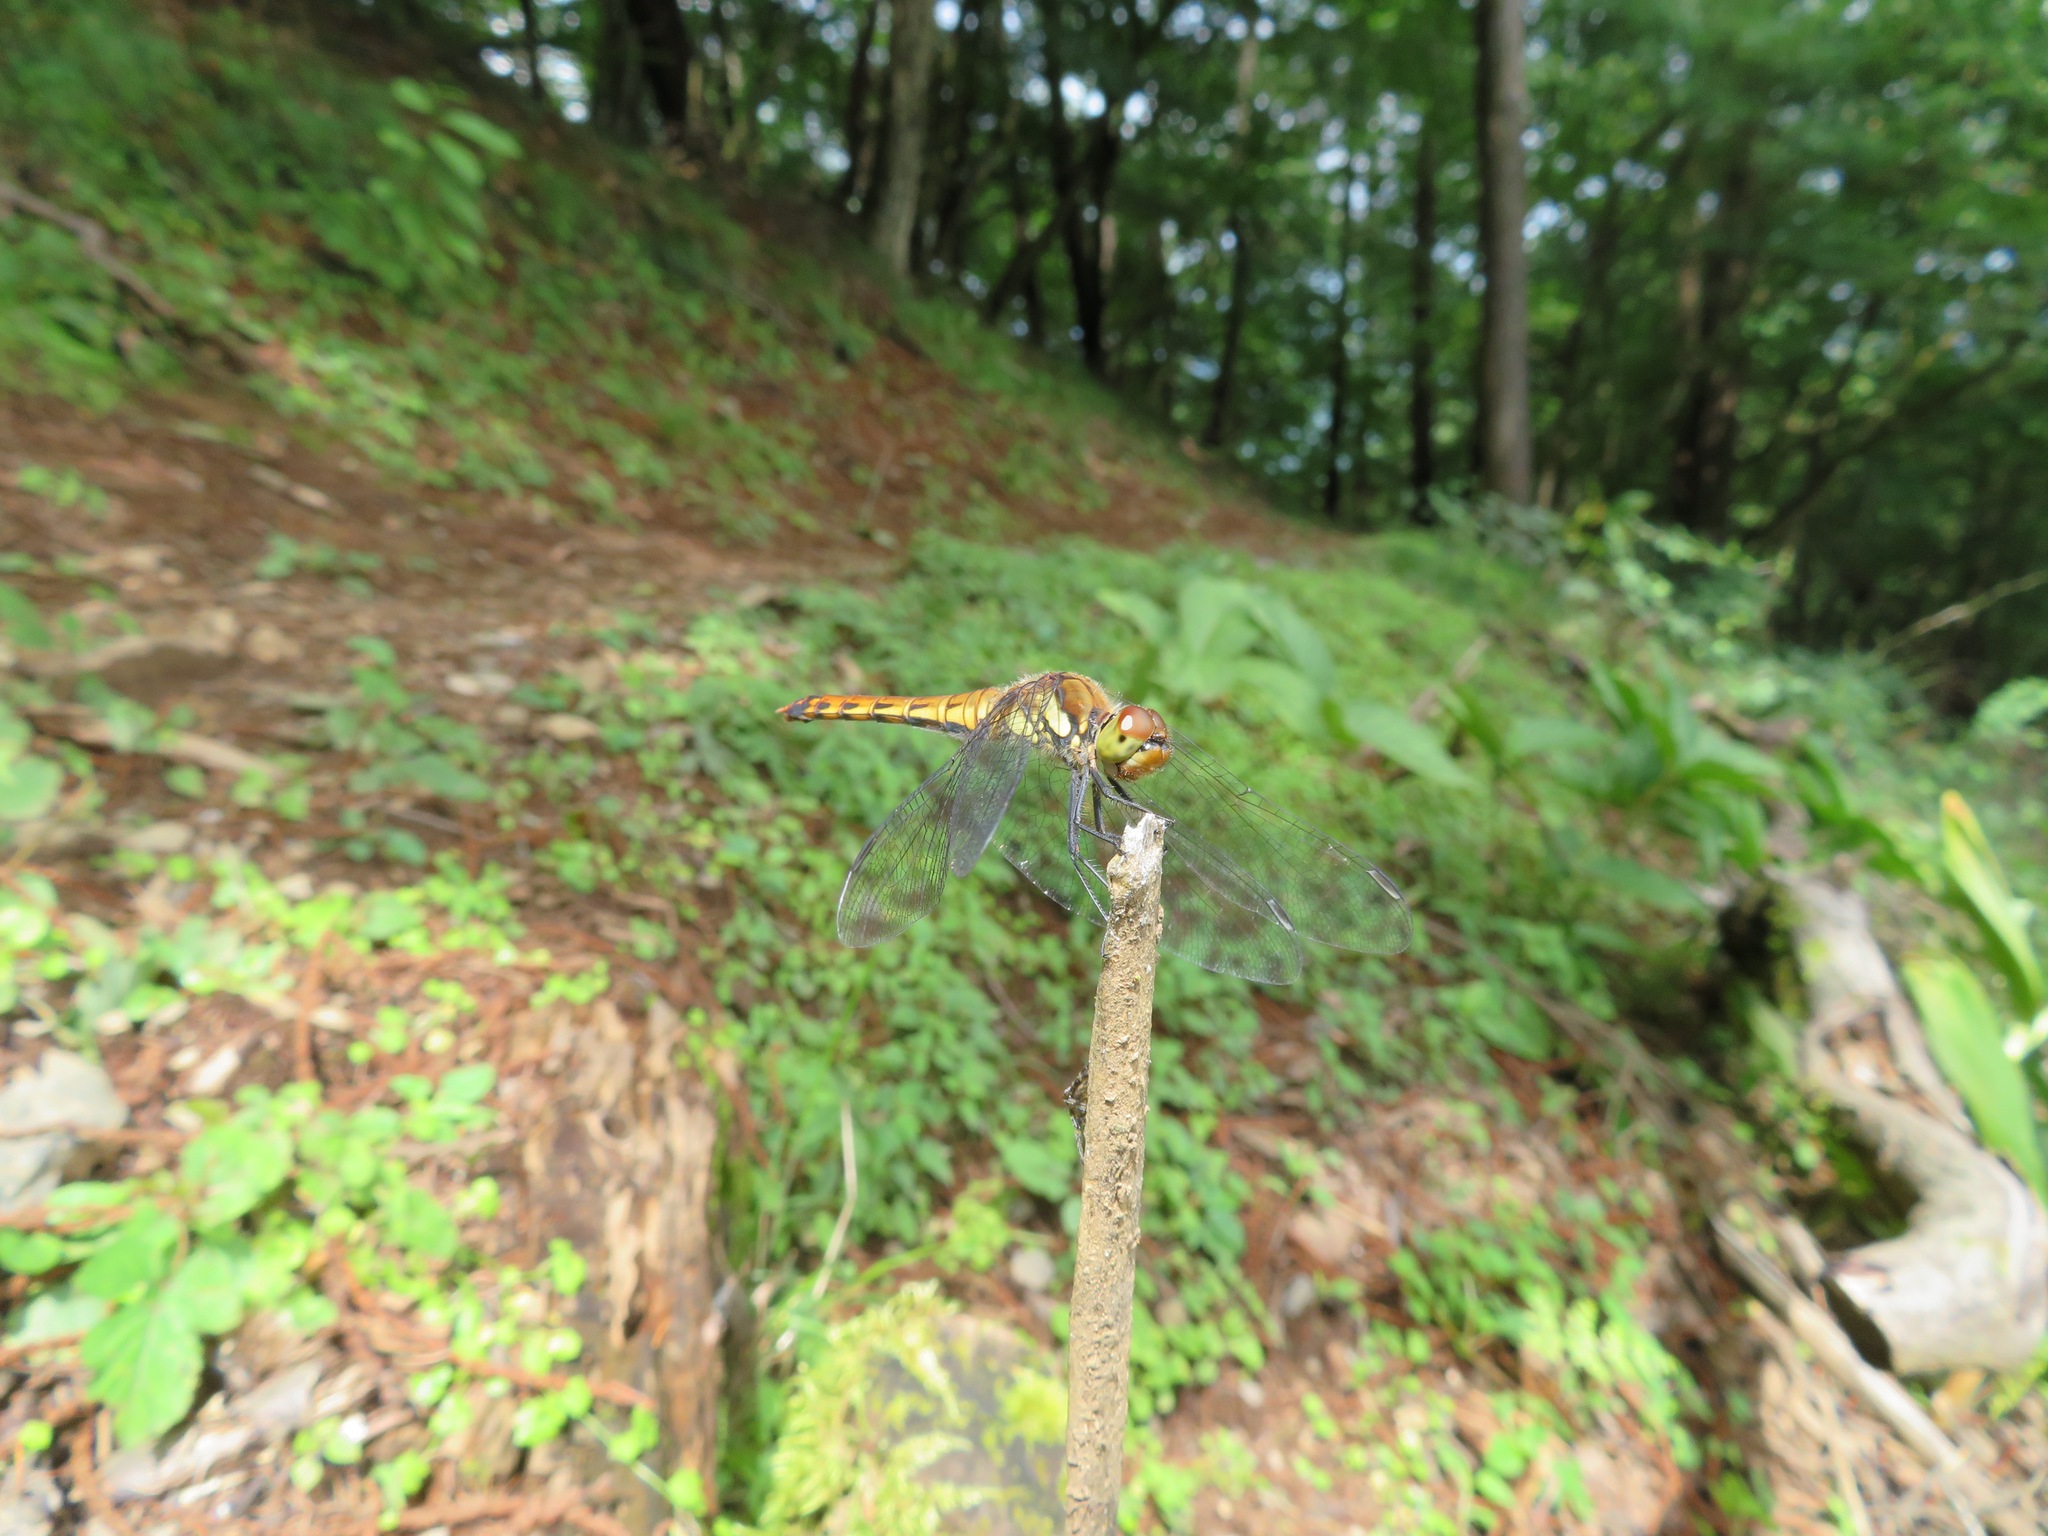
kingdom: Animalia
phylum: Arthropoda
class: Insecta
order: Odonata
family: Libellulidae
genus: Sympetrum
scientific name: Sympetrum frequens
